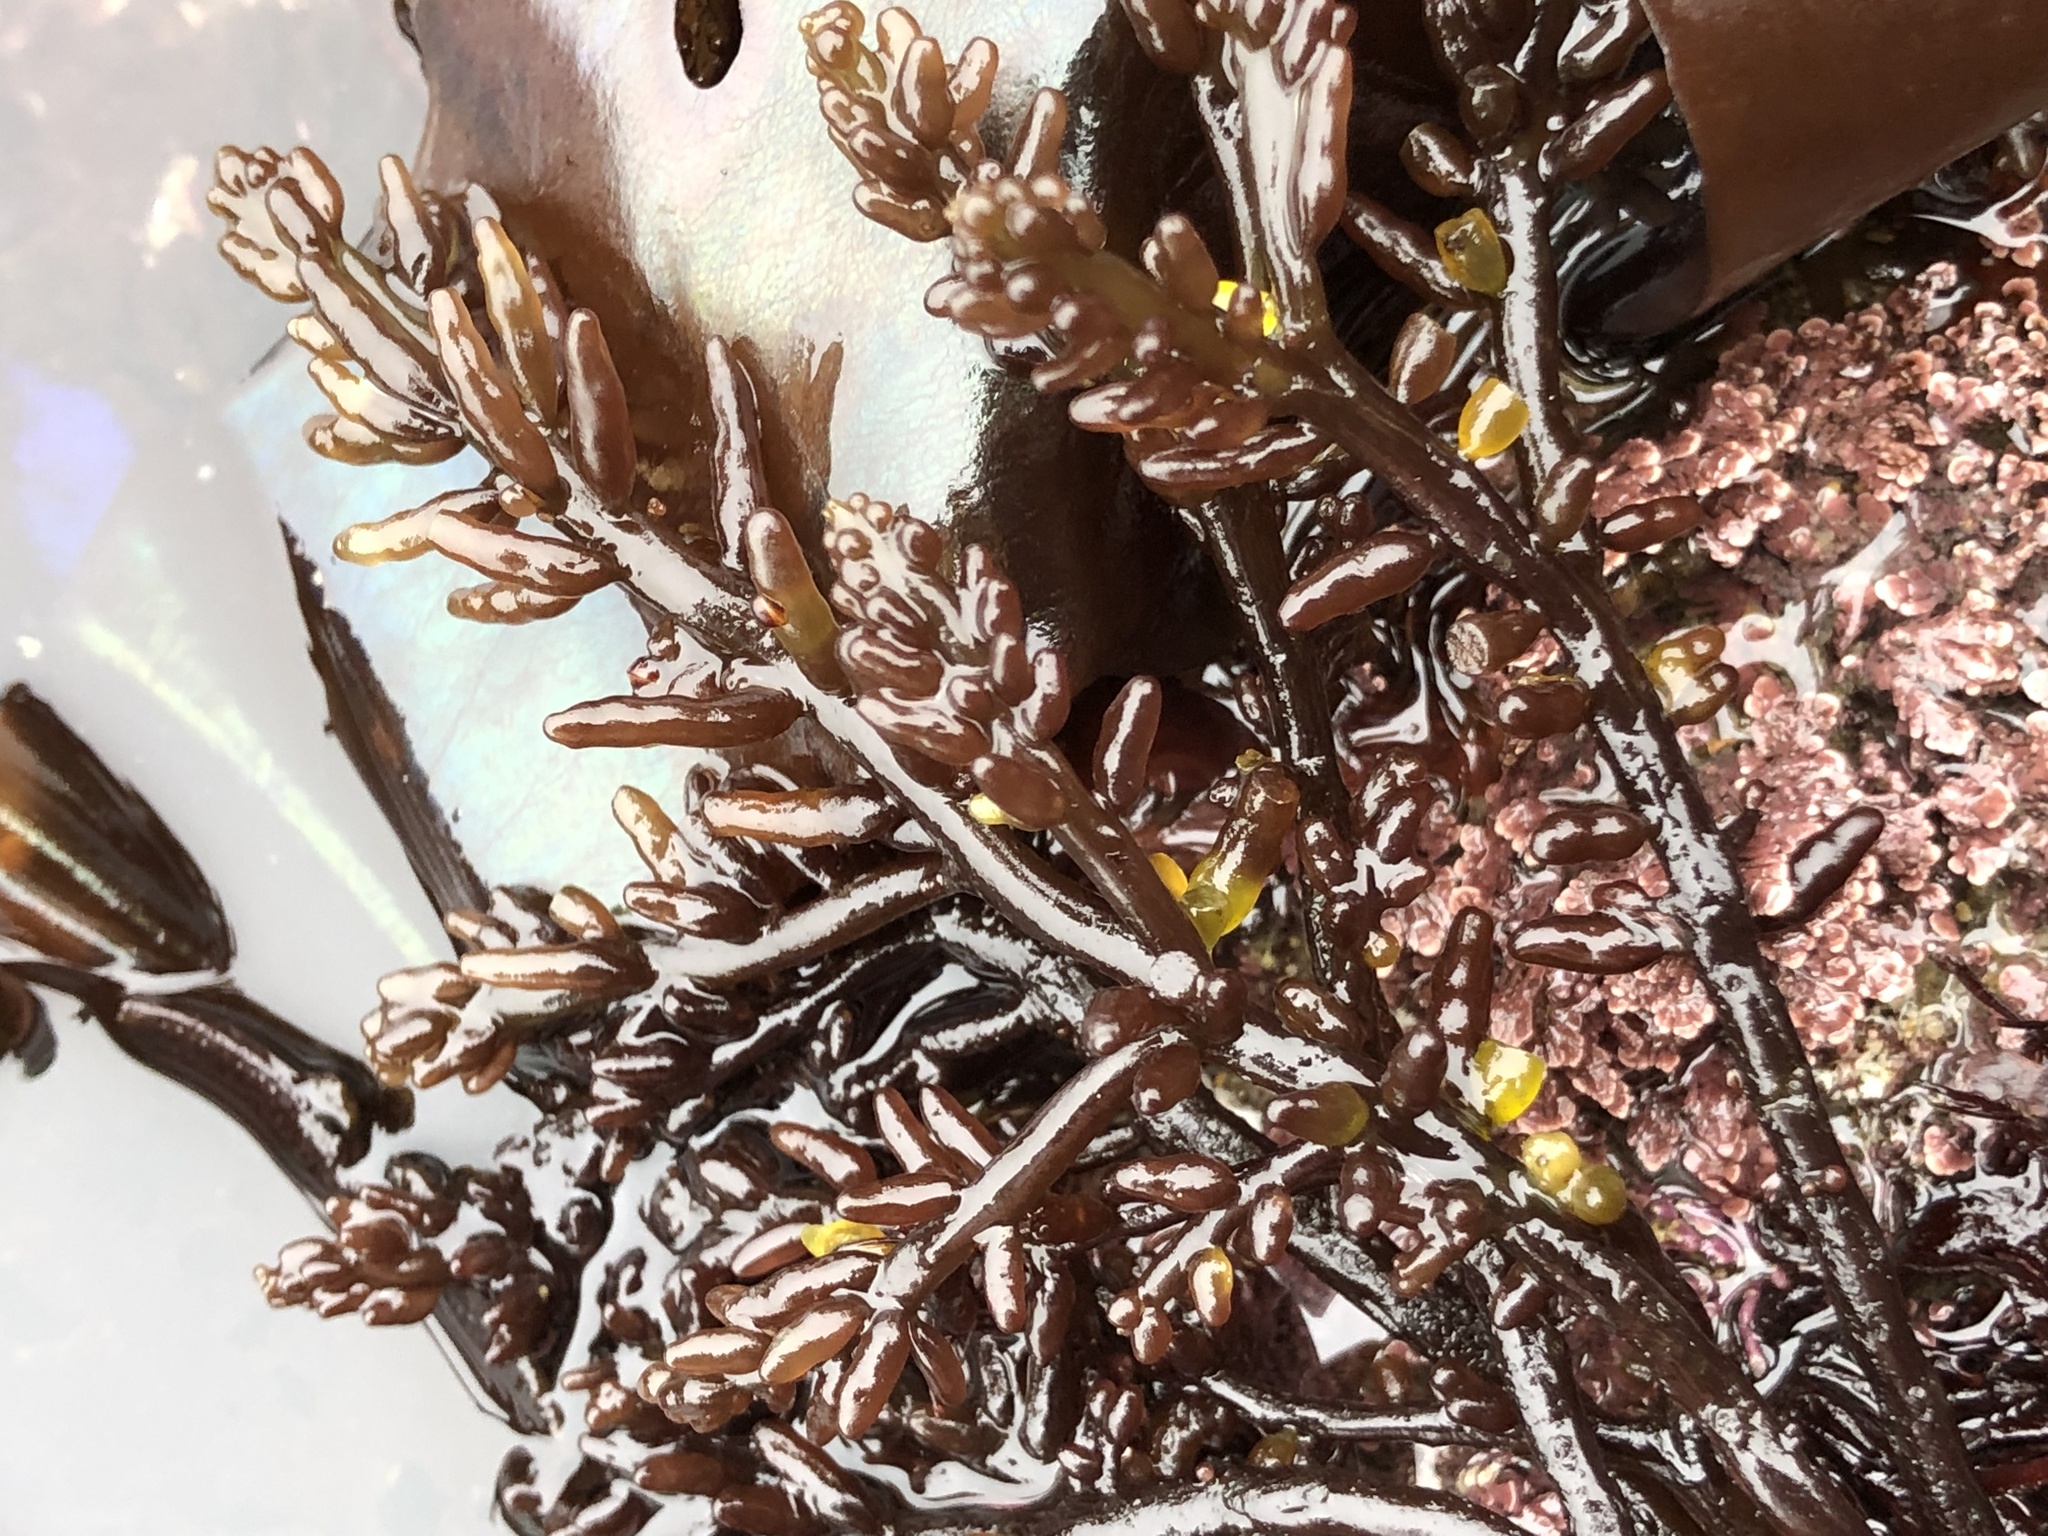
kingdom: Plantae
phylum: Rhodophyta
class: Florideophyceae
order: Rhodymeniales
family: Champiaceae
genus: Neogastroclonium
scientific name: Neogastroclonium subarticulatum
